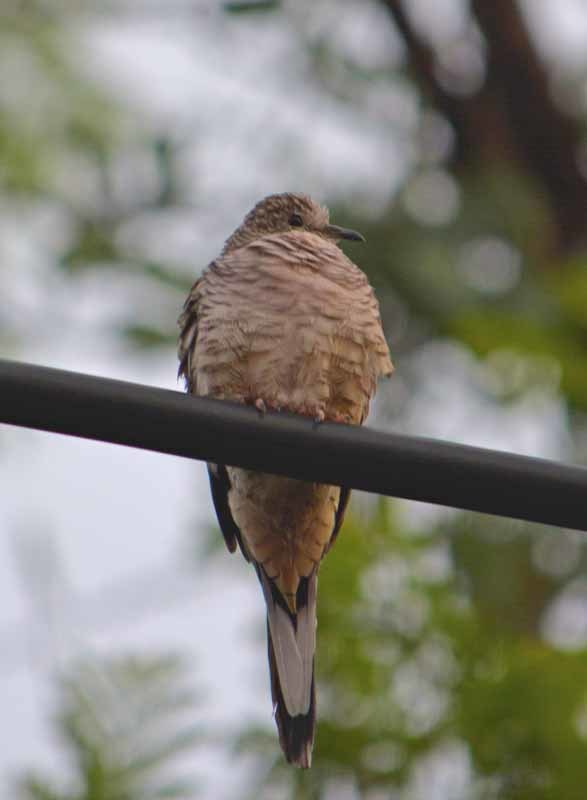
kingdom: Animalia
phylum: Chordata
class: Aves
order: Columbiformes
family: Columbidae
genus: Columbina
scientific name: Columbina inca
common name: Inca dove
